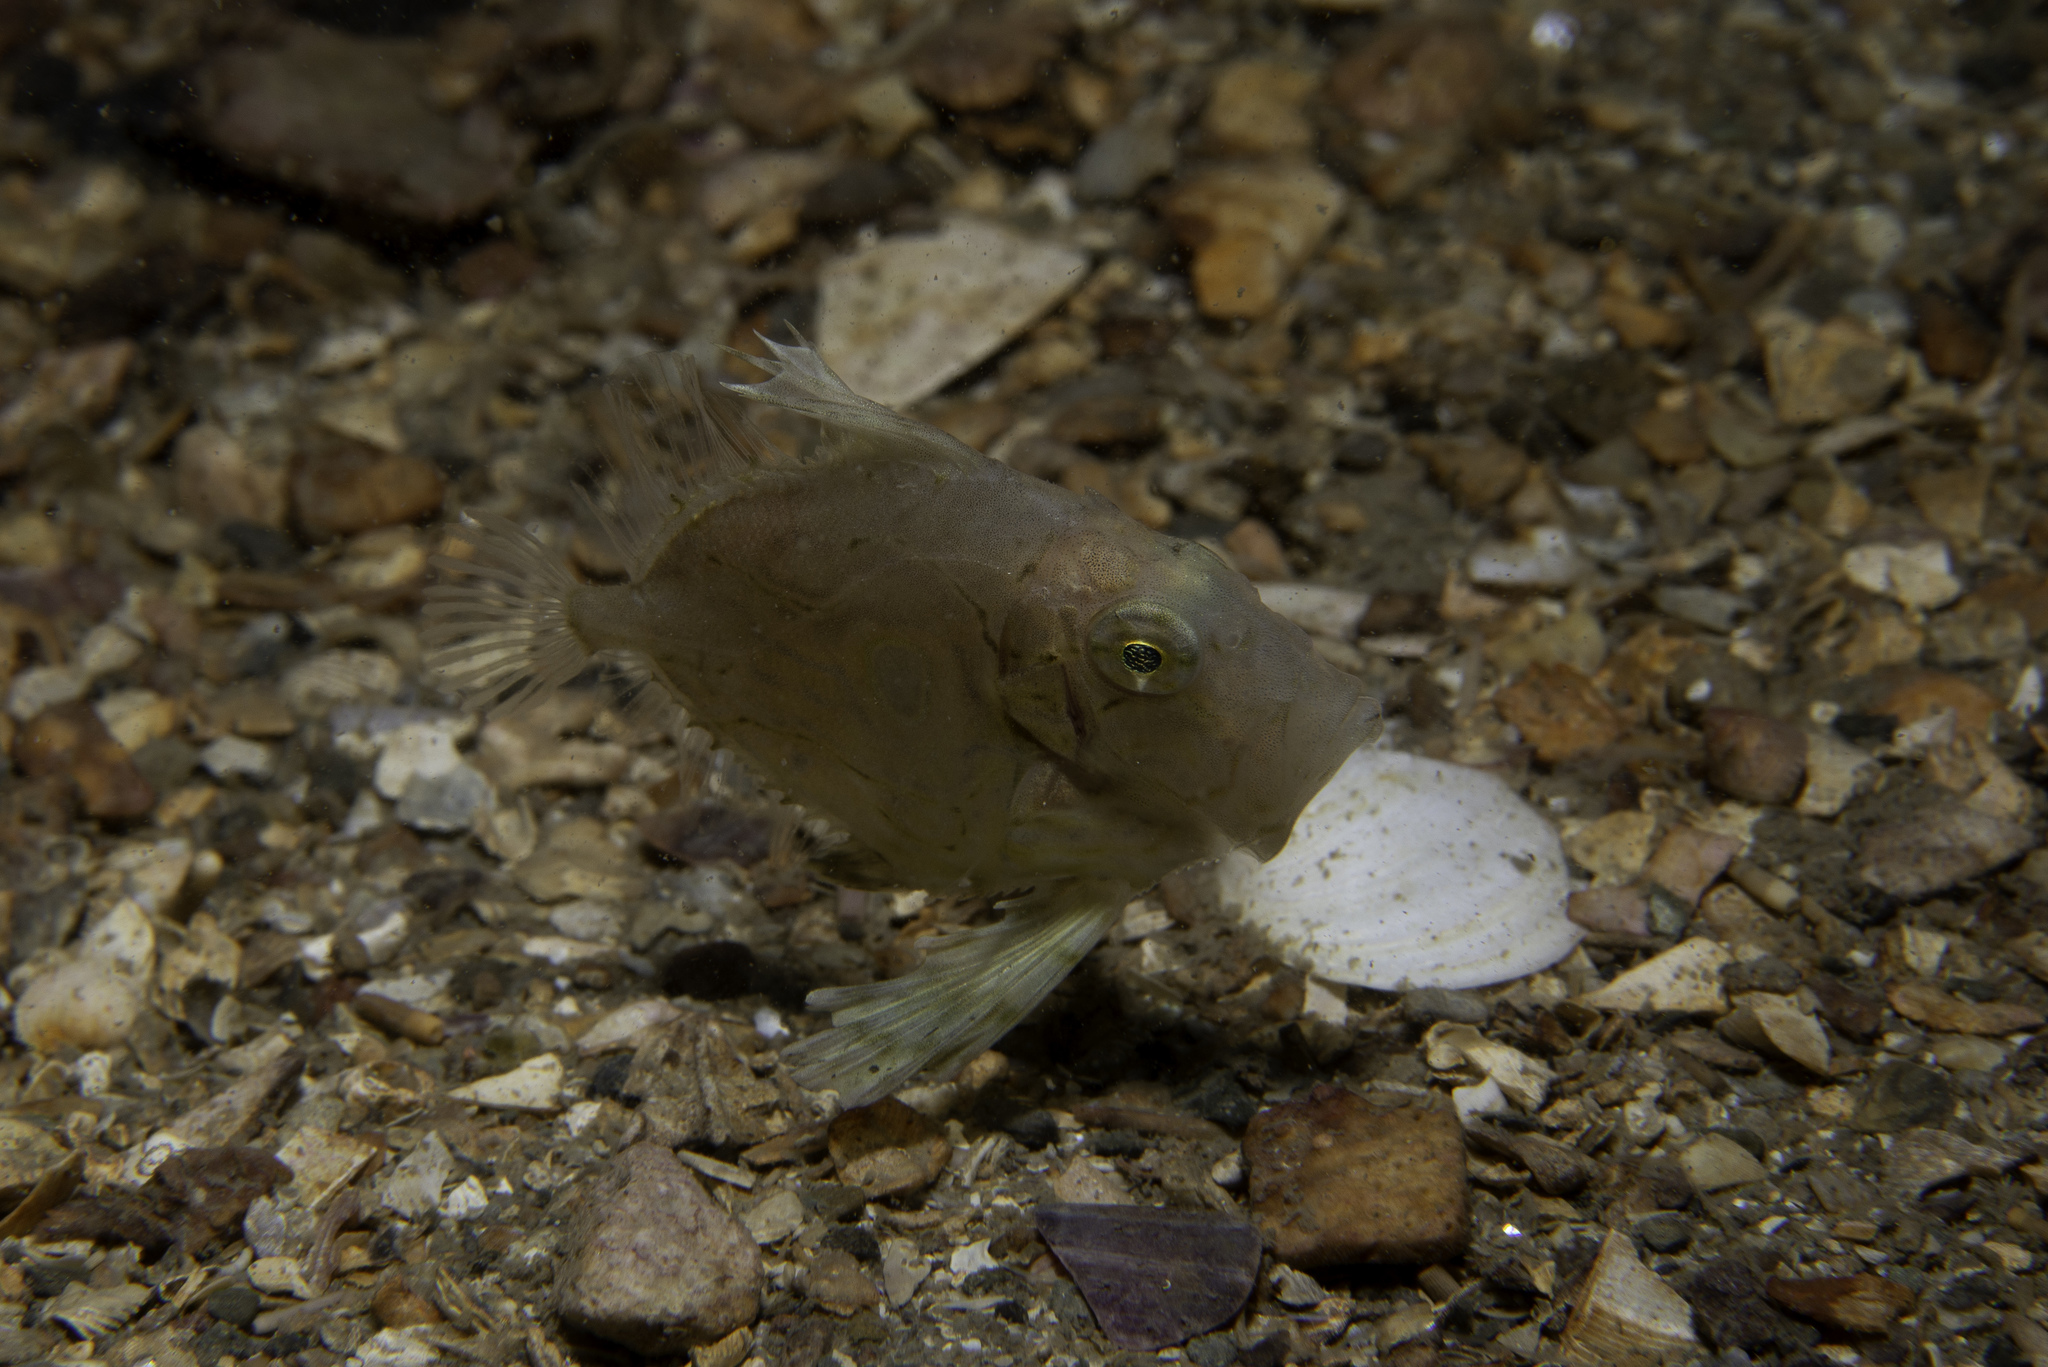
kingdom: Animalia
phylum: Chordata
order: Zeiformes
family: Zeidae
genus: Zeus
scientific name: Zeus faber
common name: John dory
